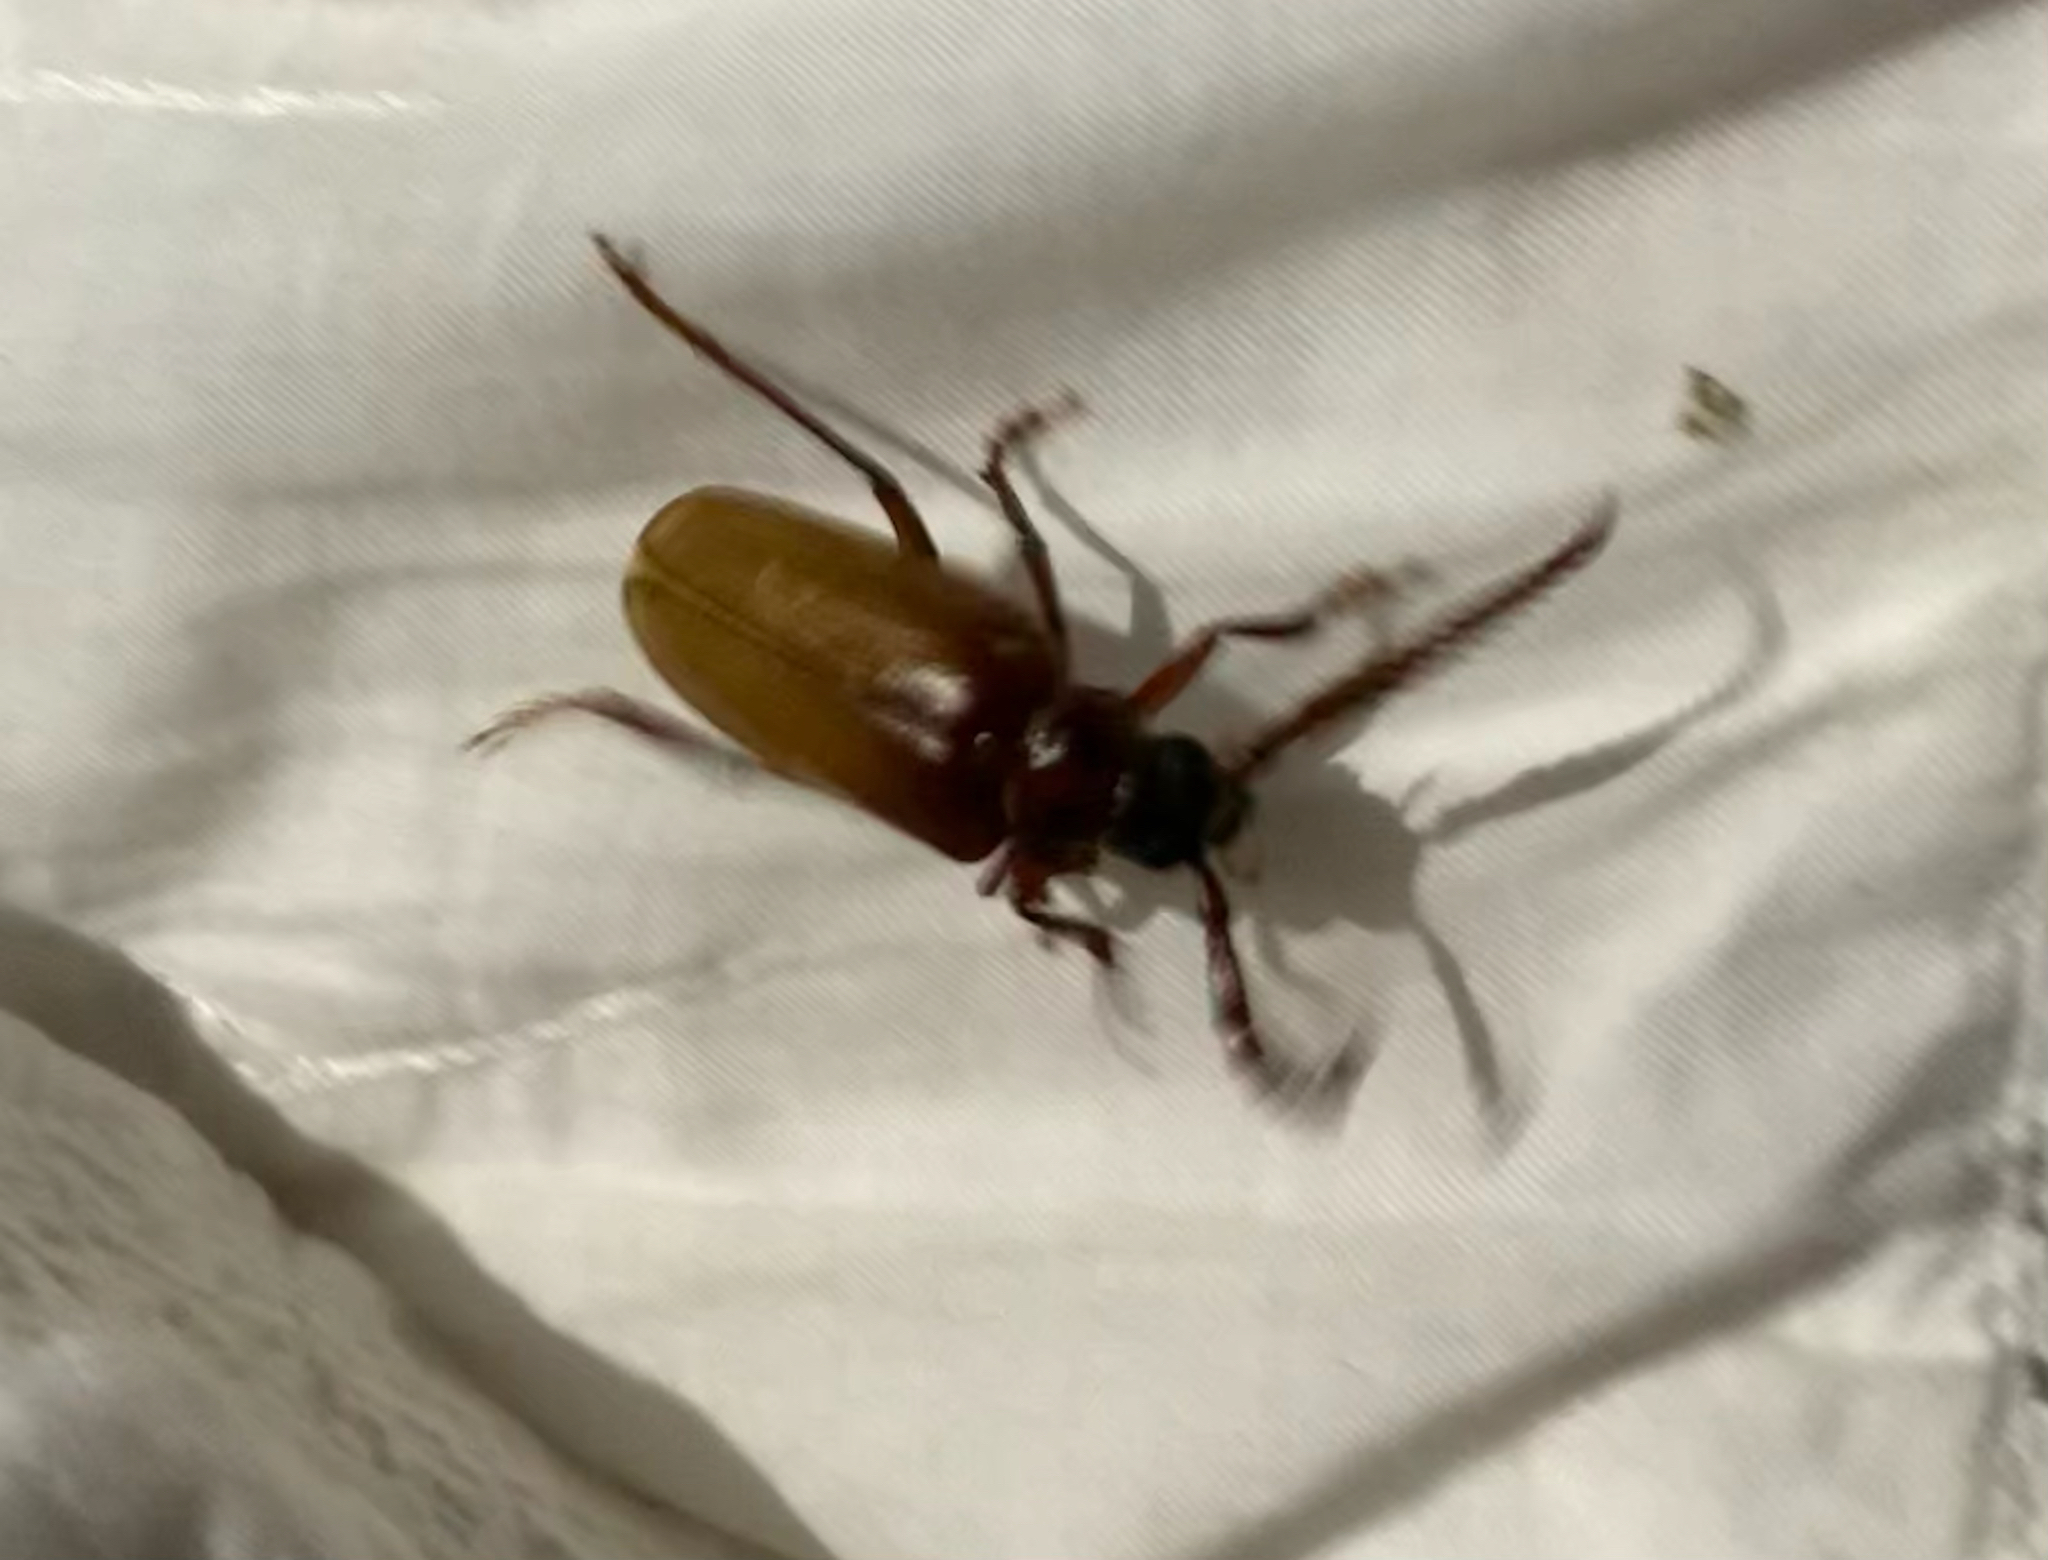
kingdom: Animalia
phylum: Arthropoda
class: Insecta
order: Coleoptera
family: Cerambycidae
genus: Prionus
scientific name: Prionus debilis
